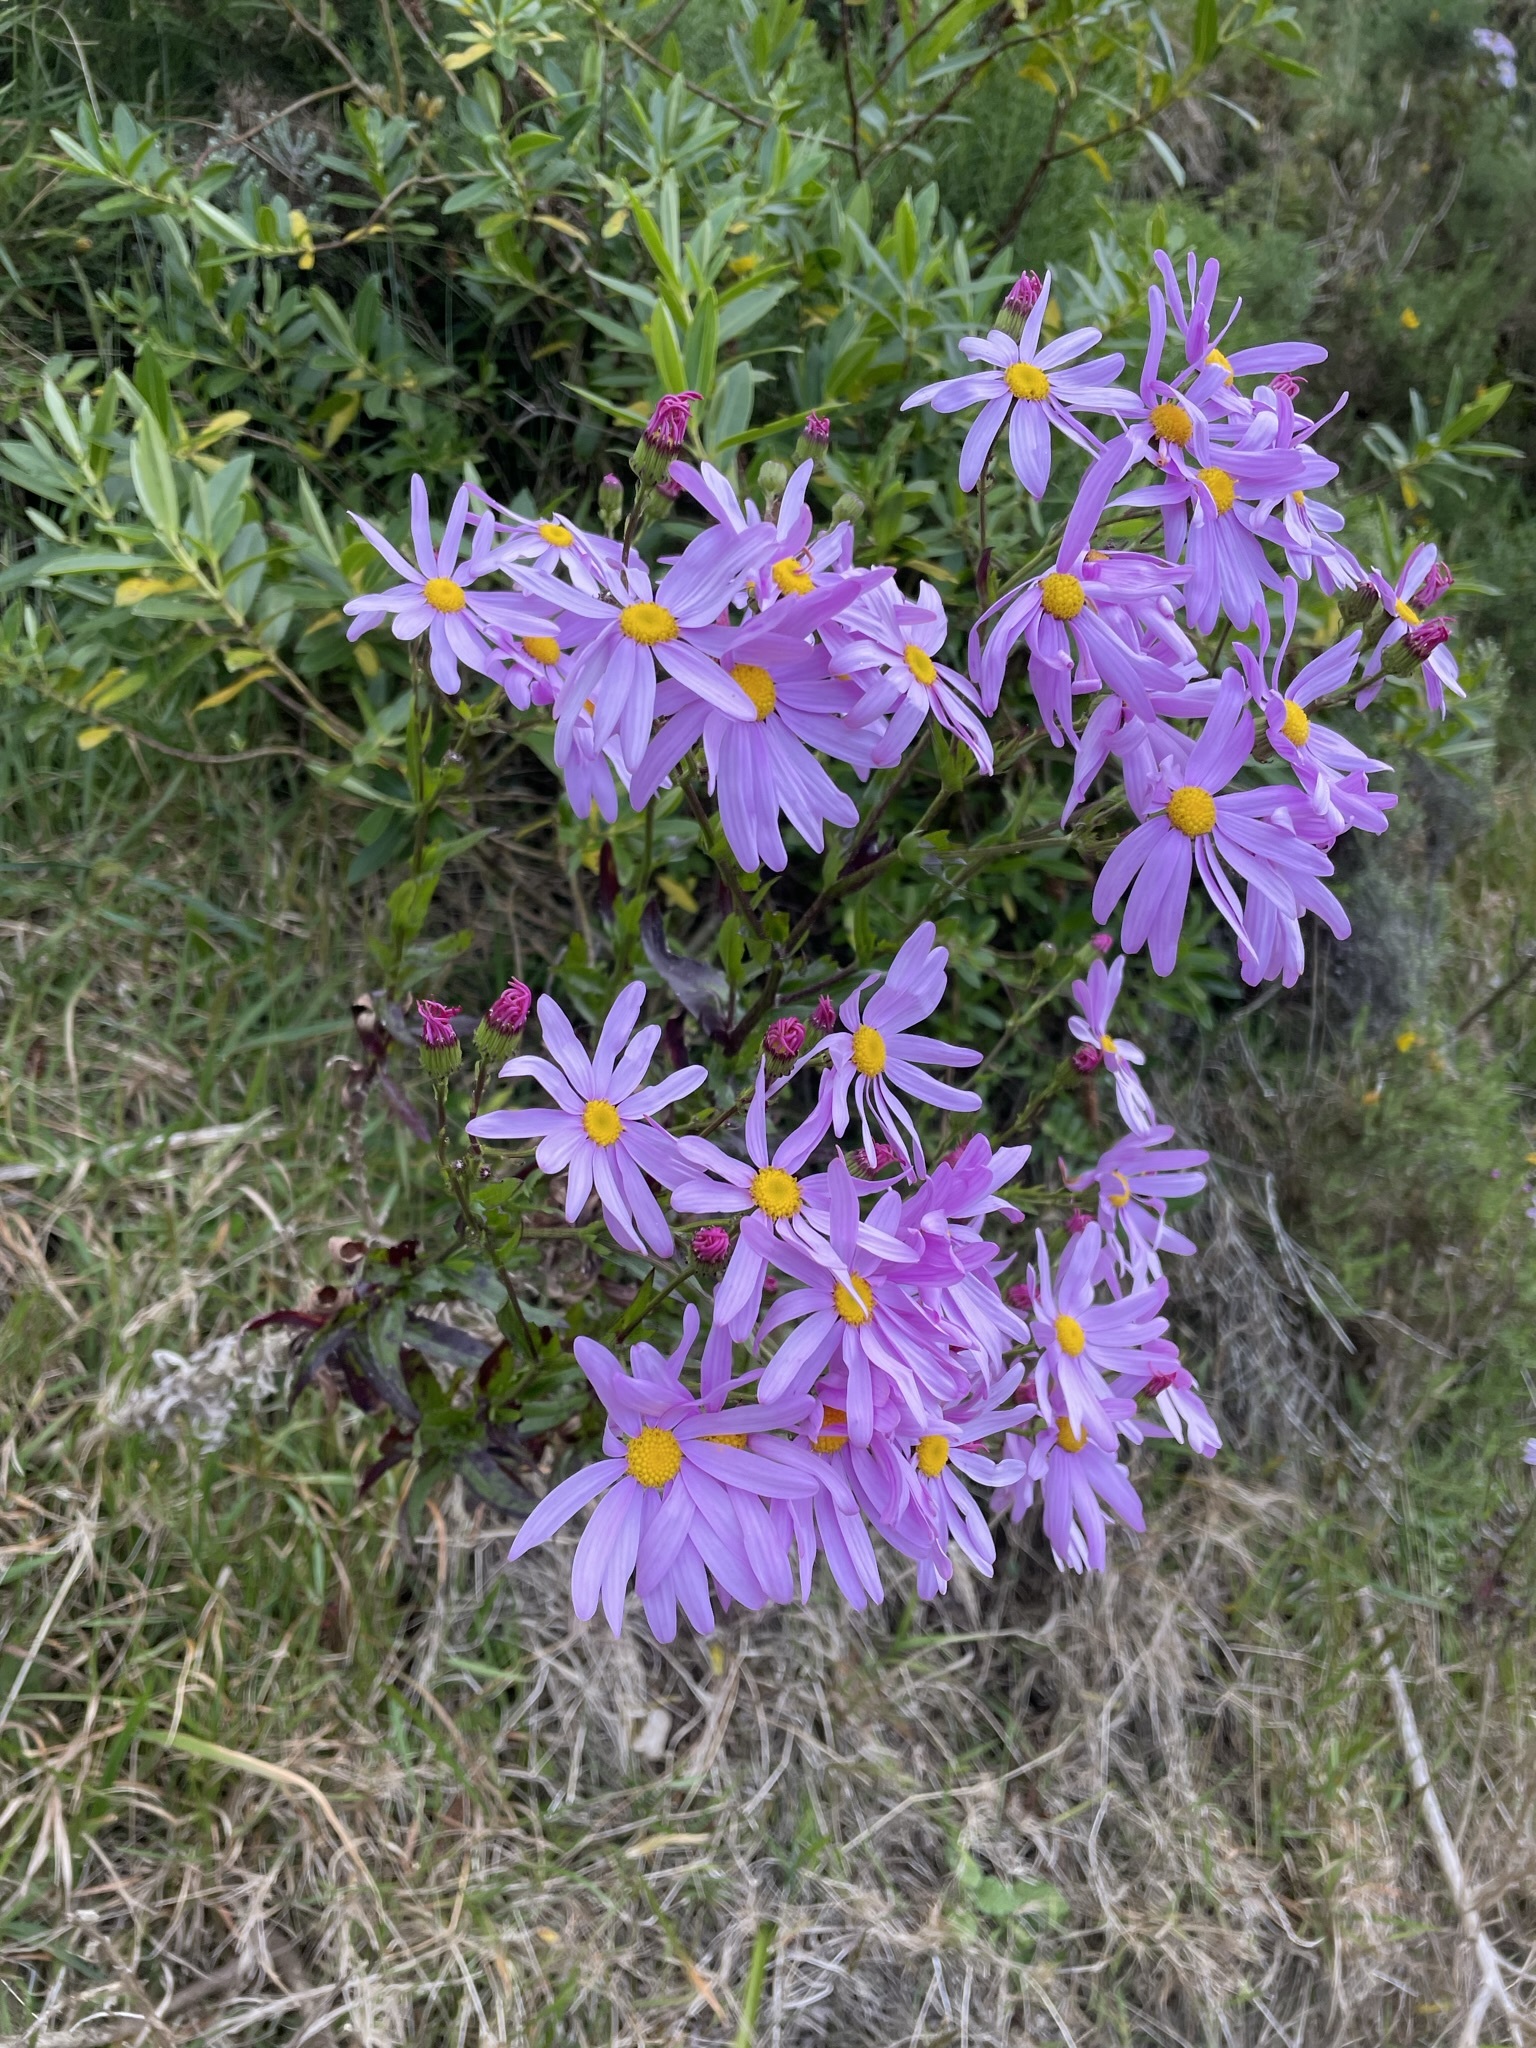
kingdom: Plantae
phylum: Tracheophyta
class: Magnoliopsida
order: Asterales
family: Asteraceae
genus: Senecio
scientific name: Senecio glastifolius
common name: Woad-leaved ragwort
